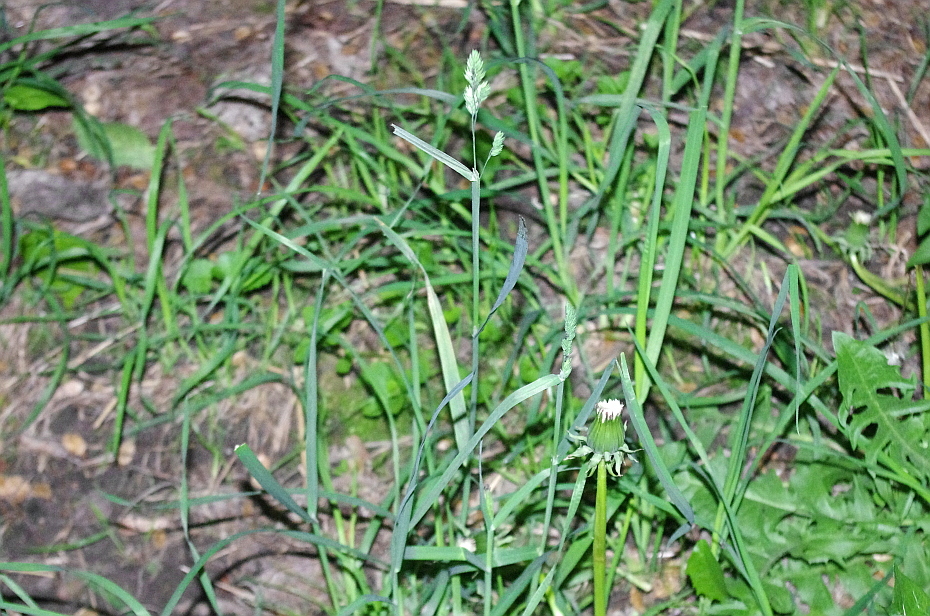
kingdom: Plantae
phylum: Tracheophyta
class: Liliopsida
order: Poales
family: Poaceae
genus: Dactylis
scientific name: Dactylis glomerata
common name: Orchardgrass
